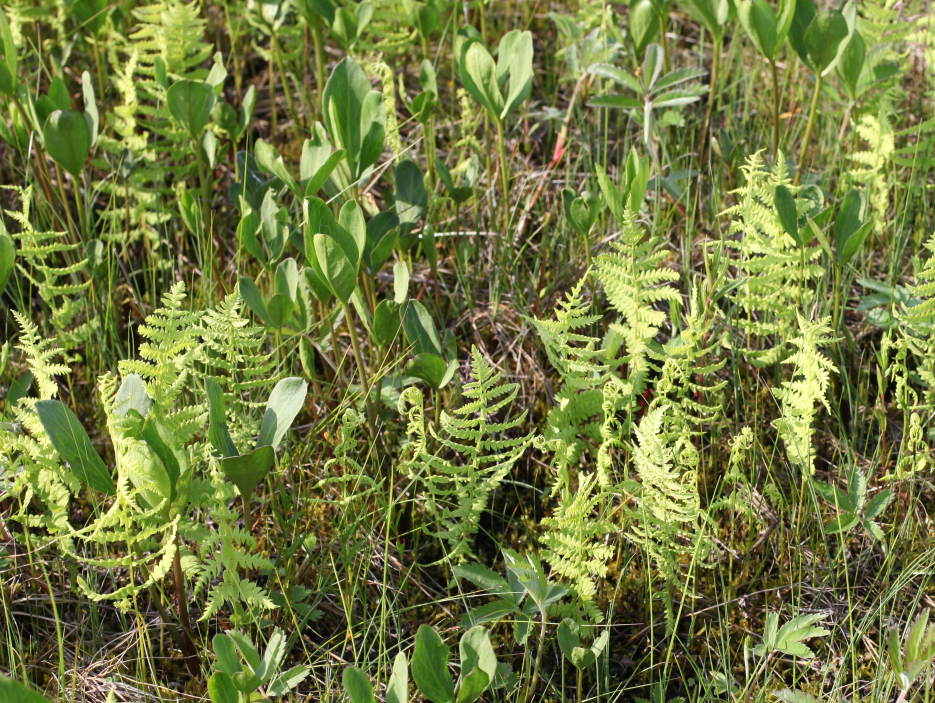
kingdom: Plantae
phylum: Tracheophyta
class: Polypodiopsida
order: Polypodiales
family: Thelypteridaceae
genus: Thelypteris
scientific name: Thelypteris palustris
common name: Marsh fern
